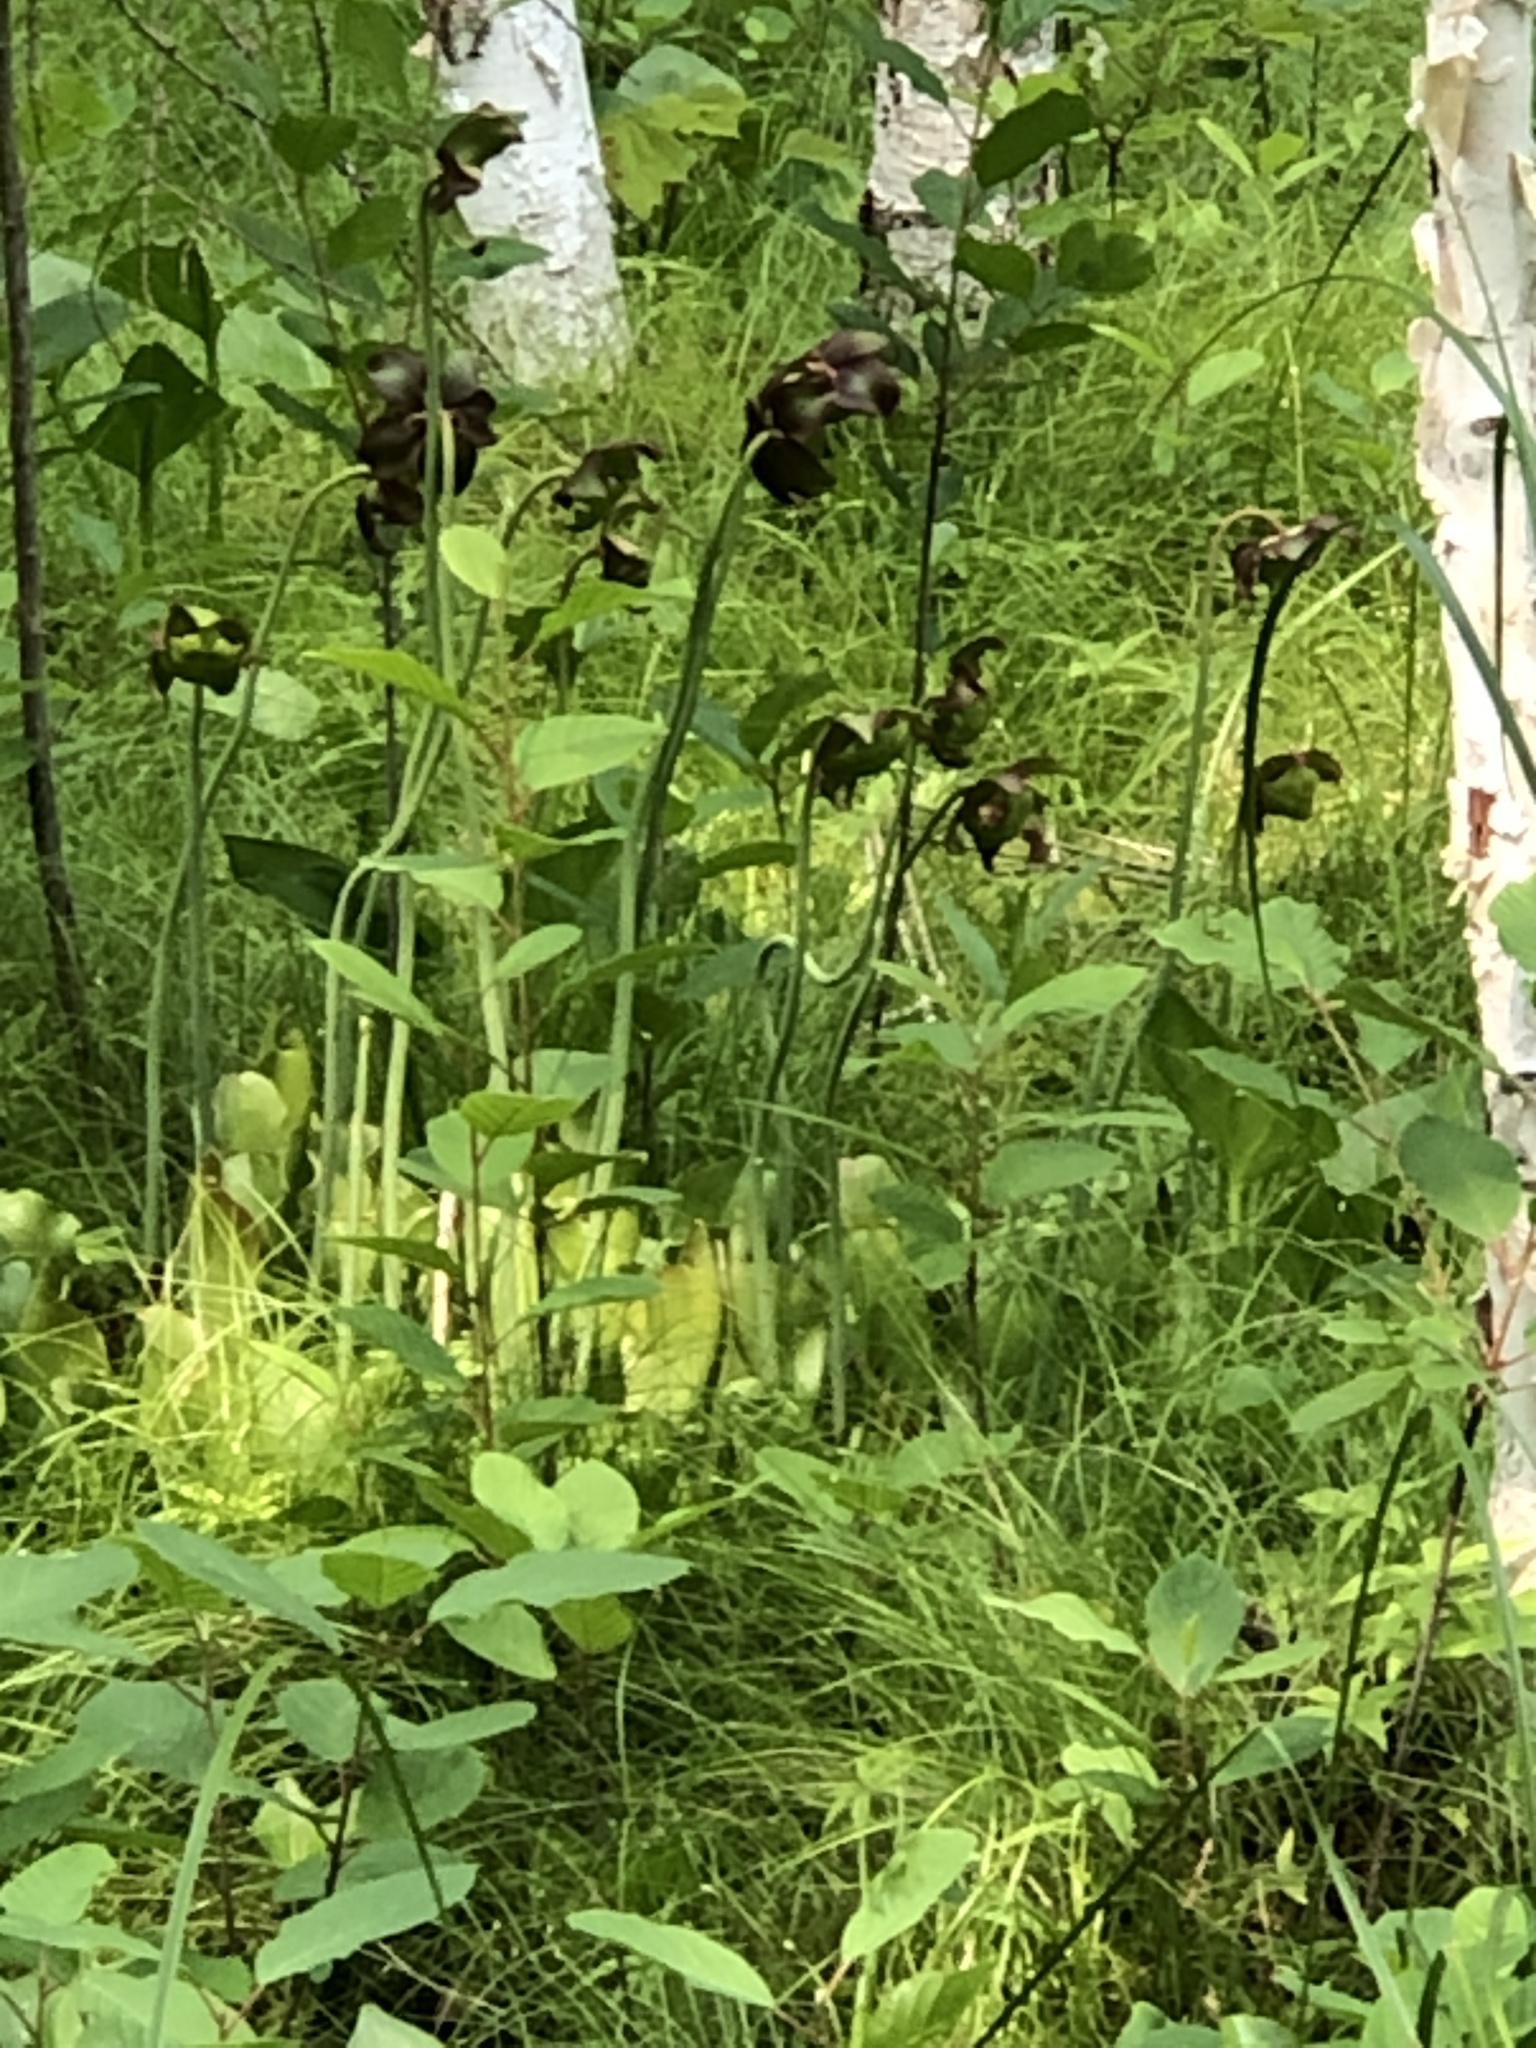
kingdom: Plantae
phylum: Tracheophyta
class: Magnoliopsida
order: Ericales
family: Sarraceniaceae
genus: Sarracenia
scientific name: Sarracenia purpurea
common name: Pitcherplant
